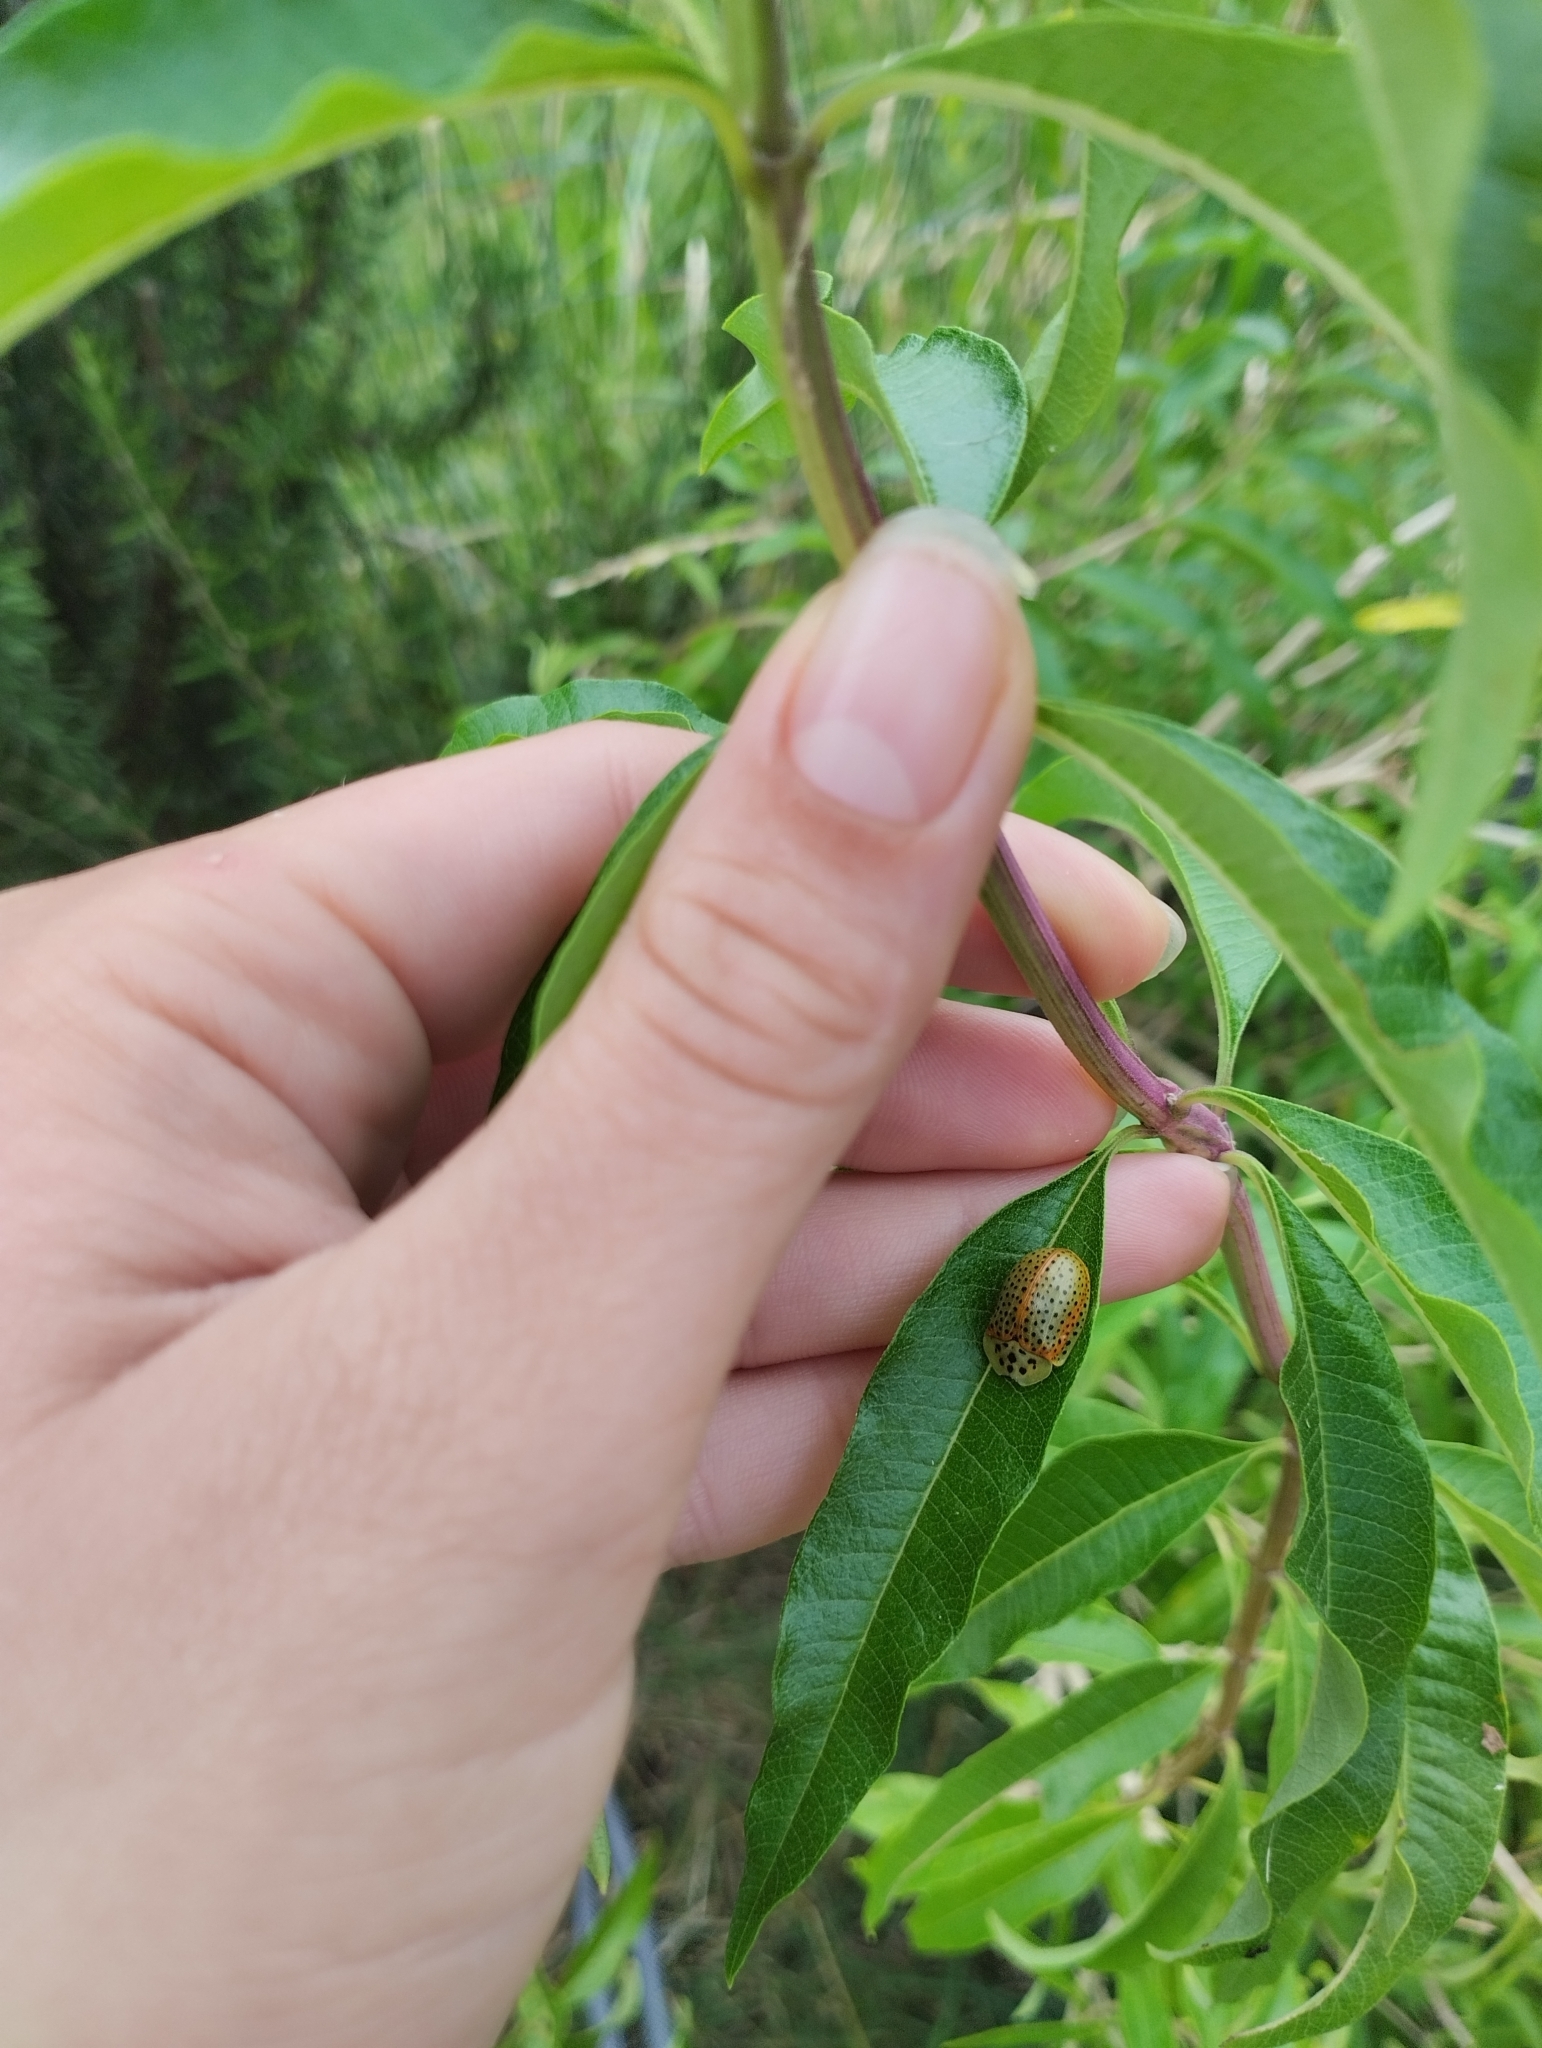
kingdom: Animalia
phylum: Arthropoda
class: Insecta
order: Coleoptera
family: Chrysomelidae
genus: Anacassis
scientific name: Anacassis cribrum
